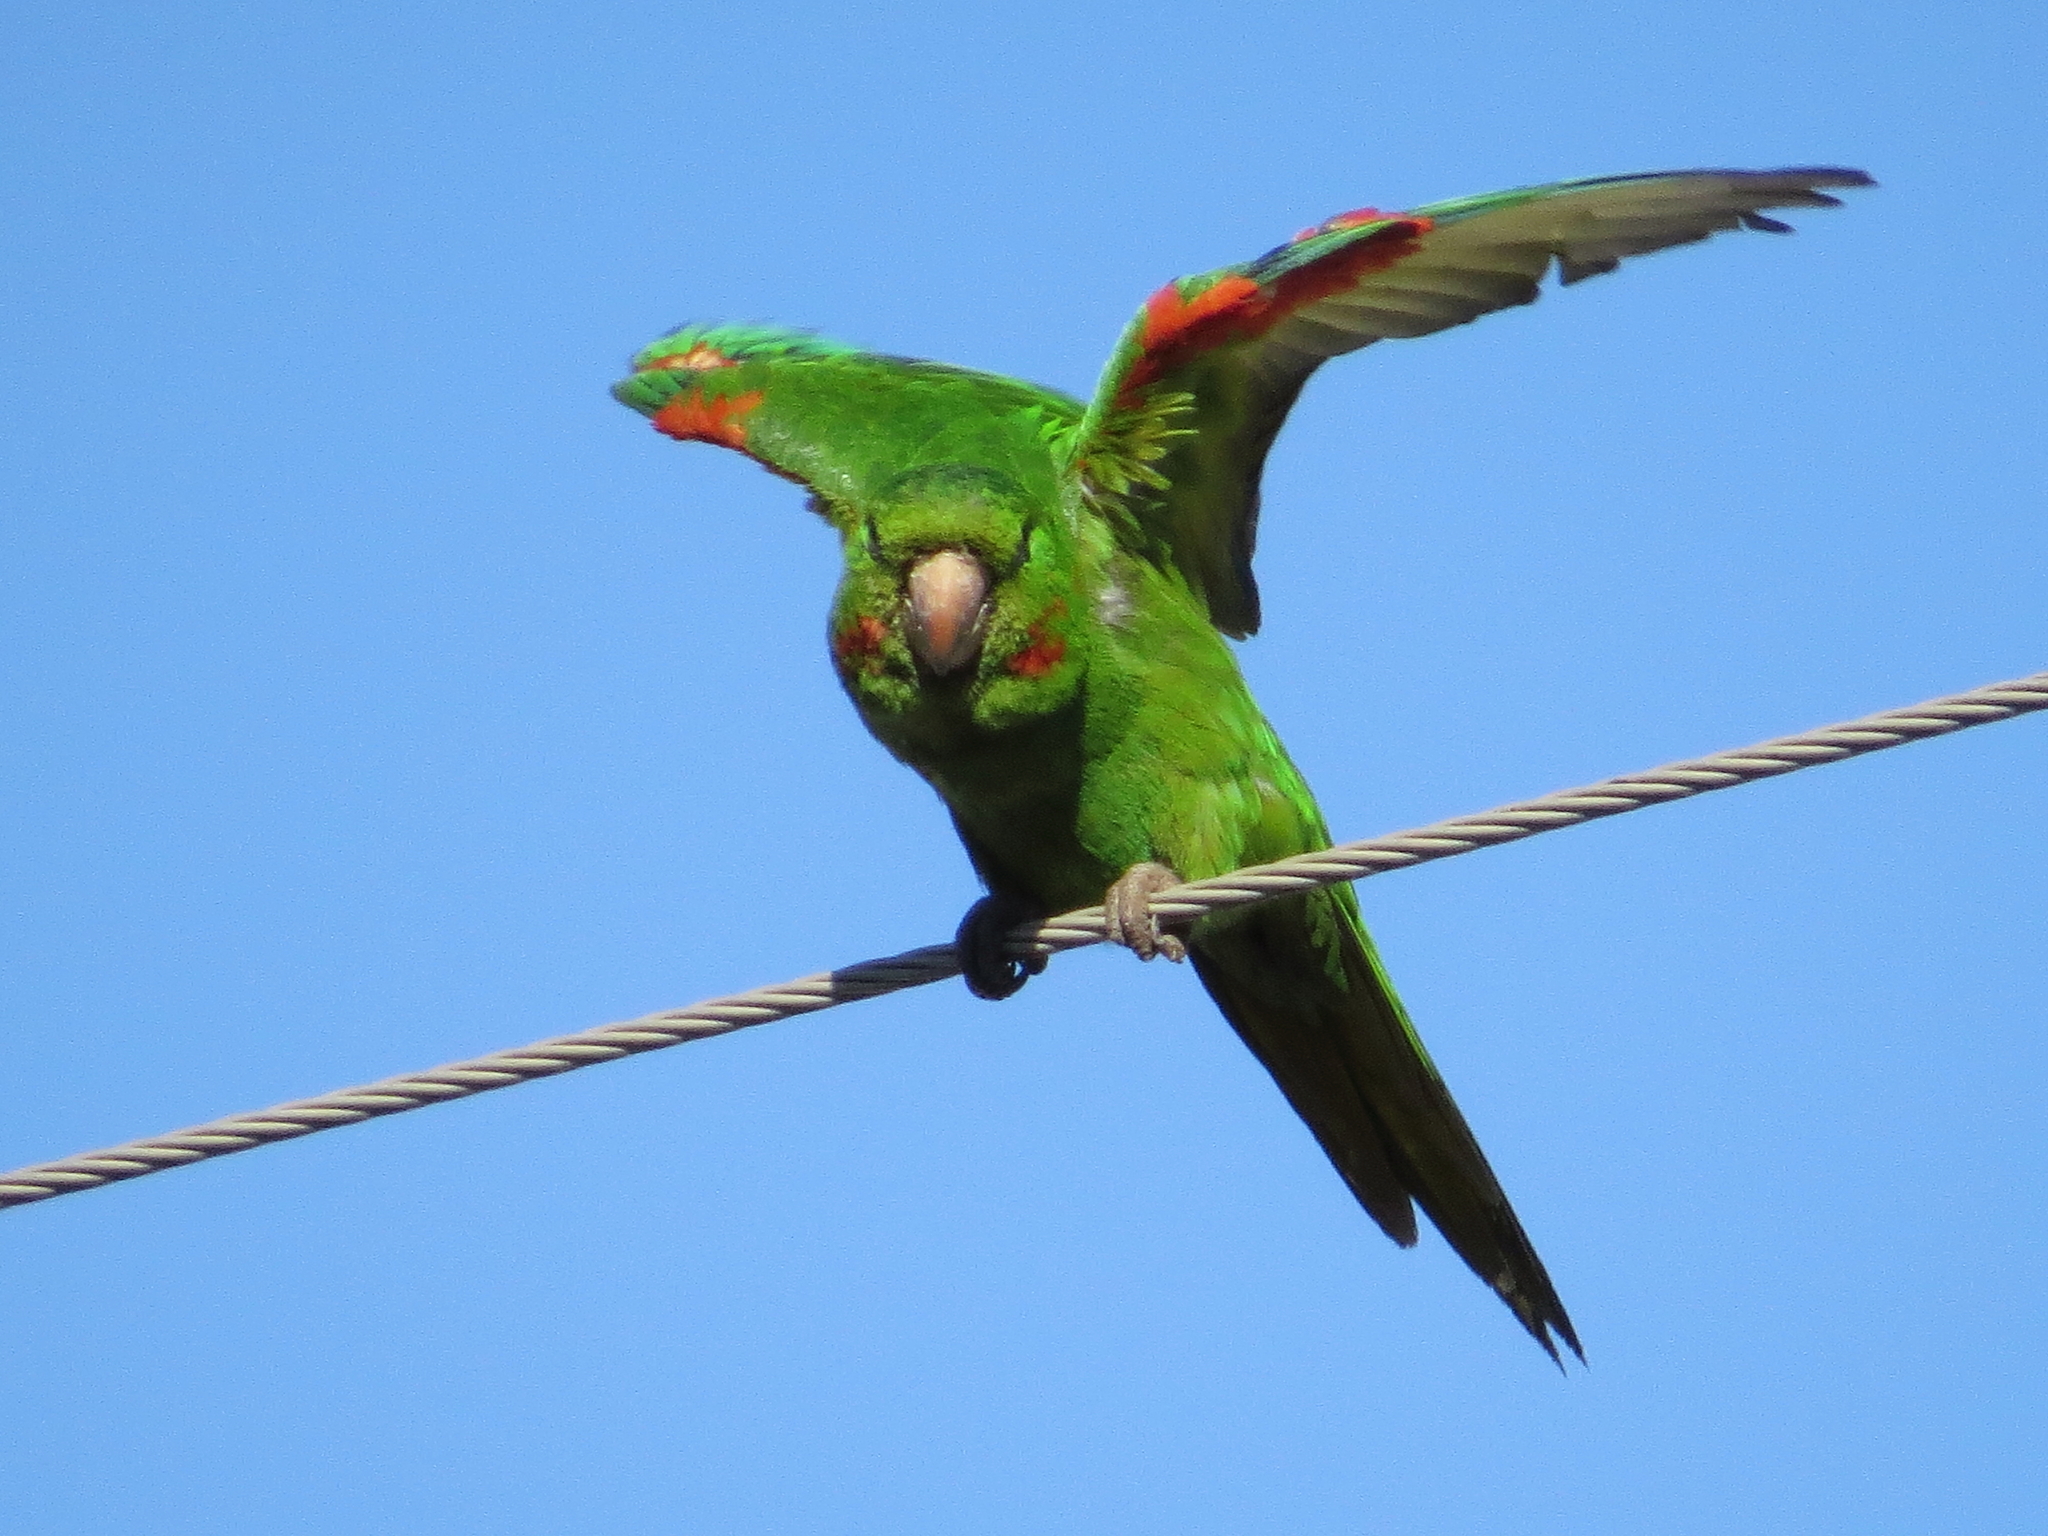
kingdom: Animalia
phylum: Chordata
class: Aves
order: Psittaciformes
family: Psittacidae
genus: Aratinga
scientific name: Aratinga leucophthalma
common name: White-eyed parakeet
